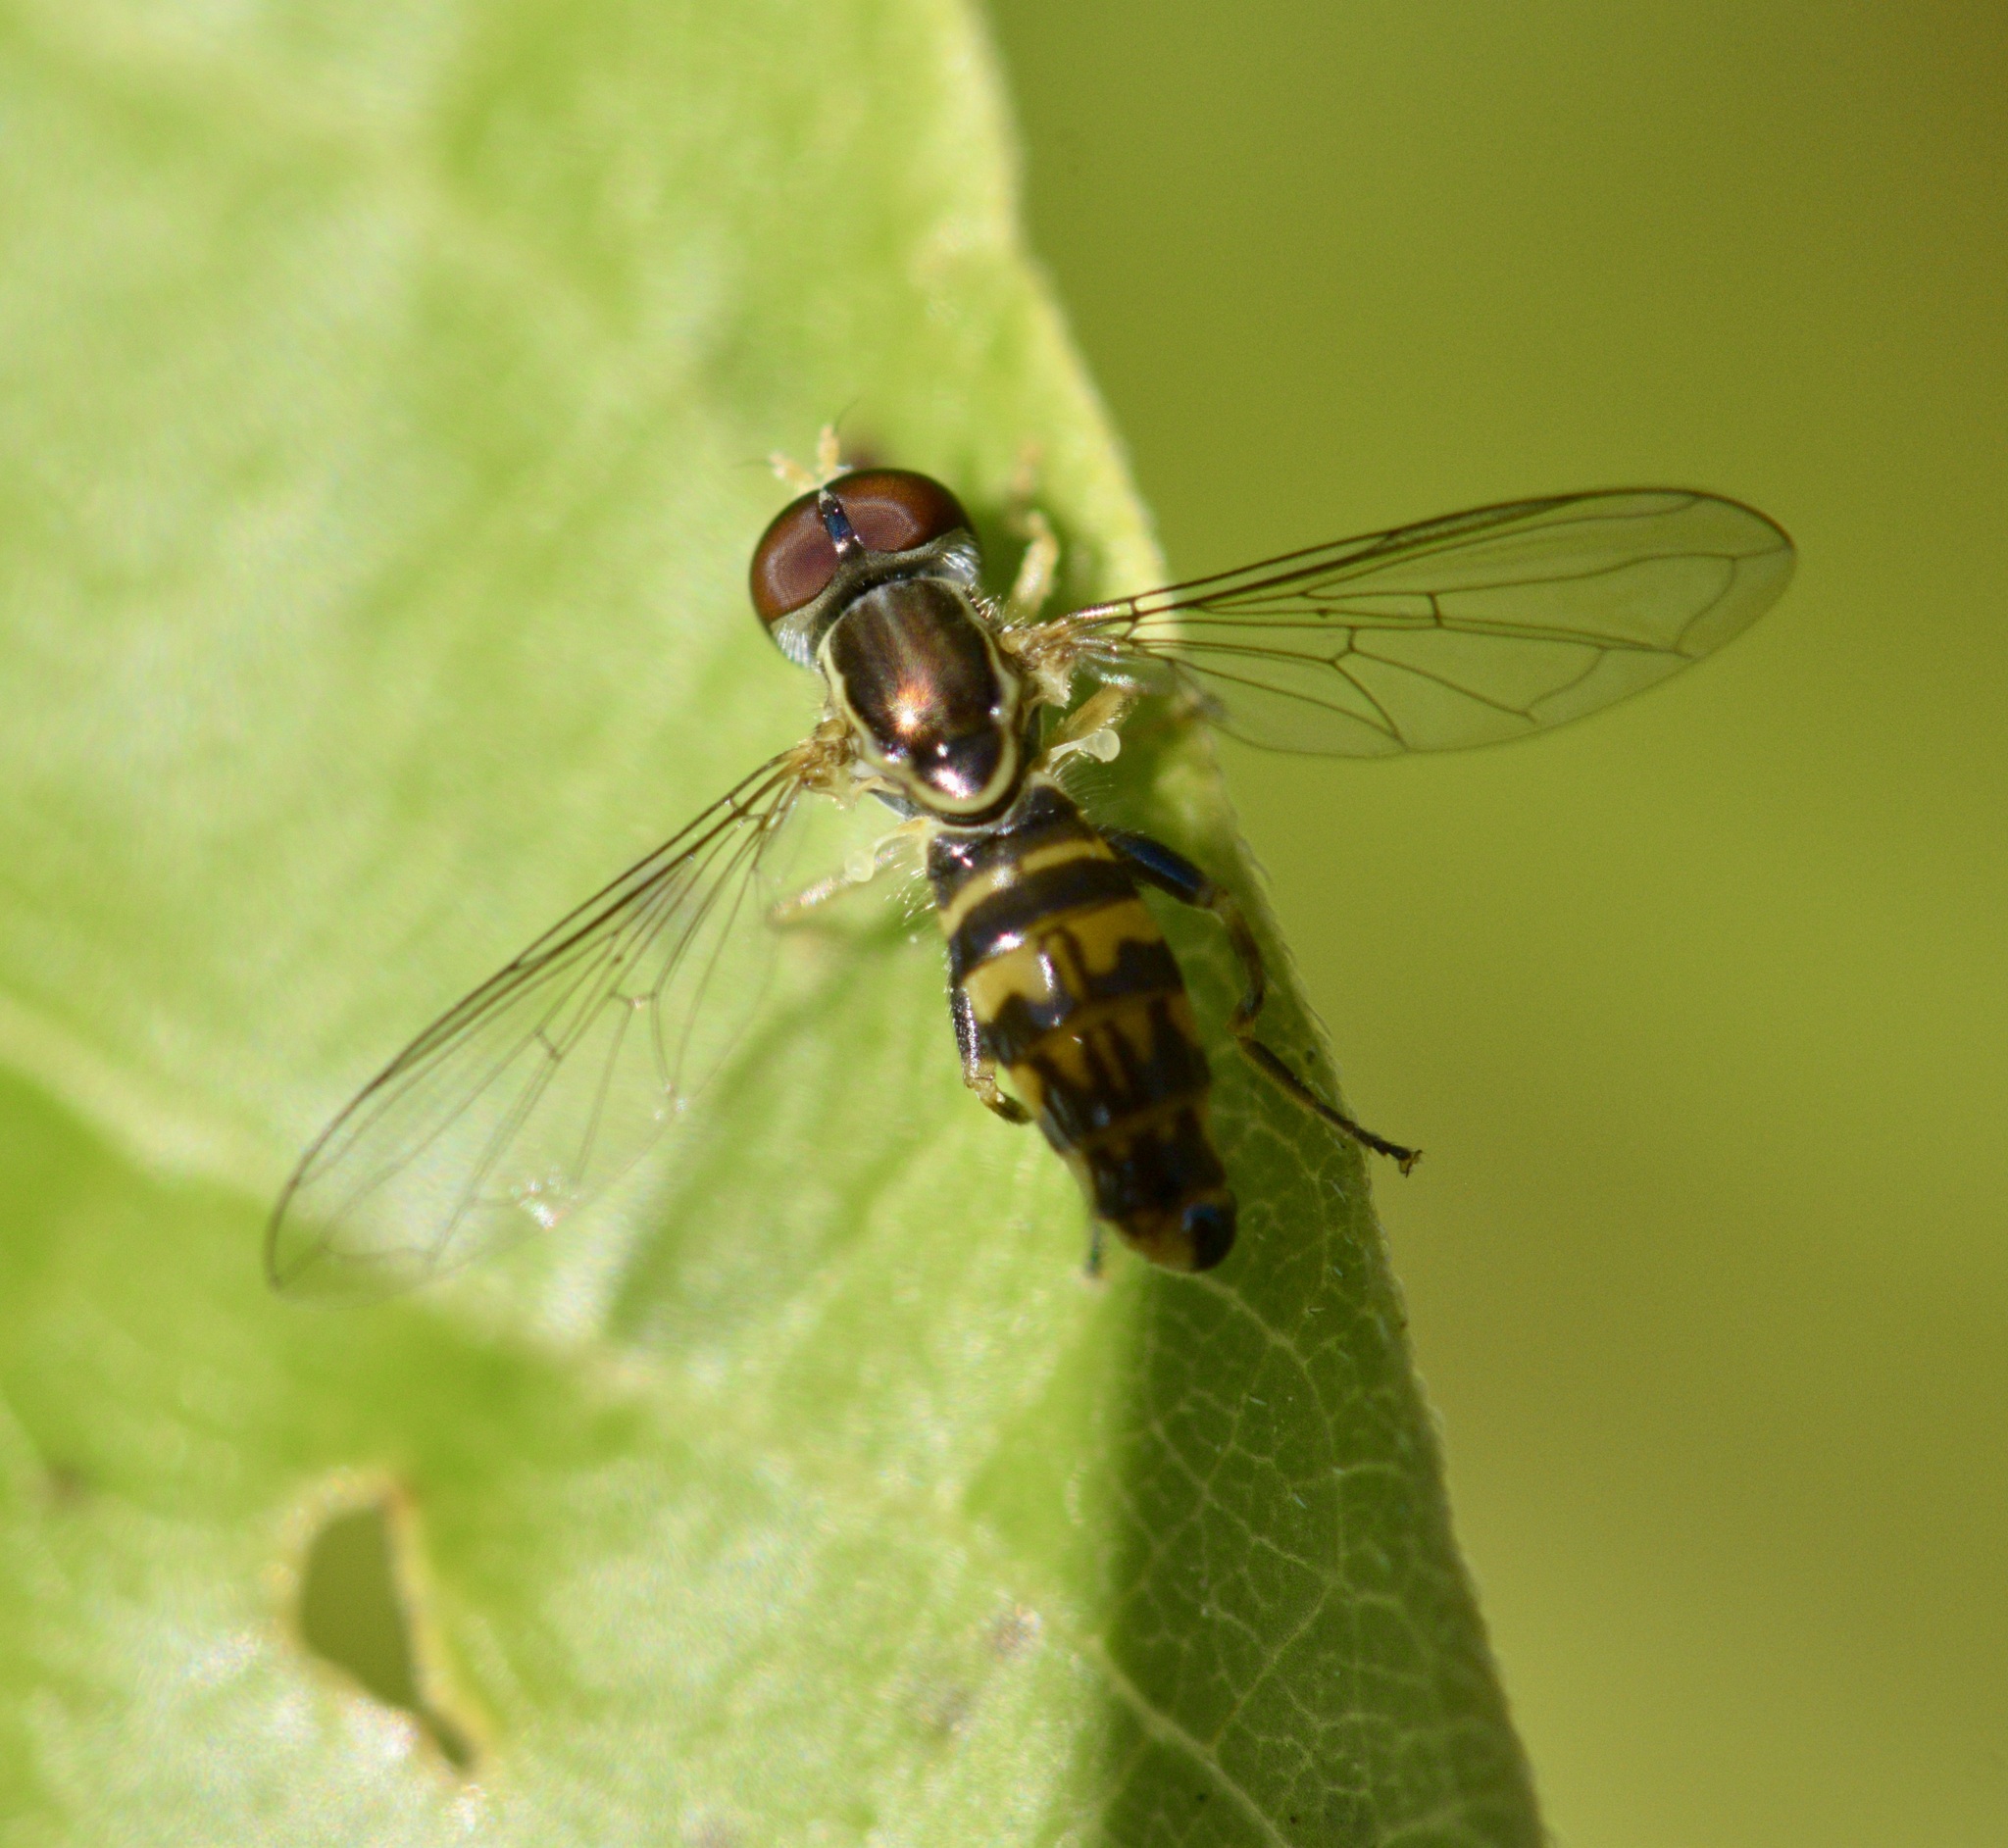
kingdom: Animalia
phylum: Arthropoda
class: Insecta
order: Diptera
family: Syrphidae
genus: Toxomerus
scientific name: Toxomerus geminatus
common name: Eastern calligrapher
